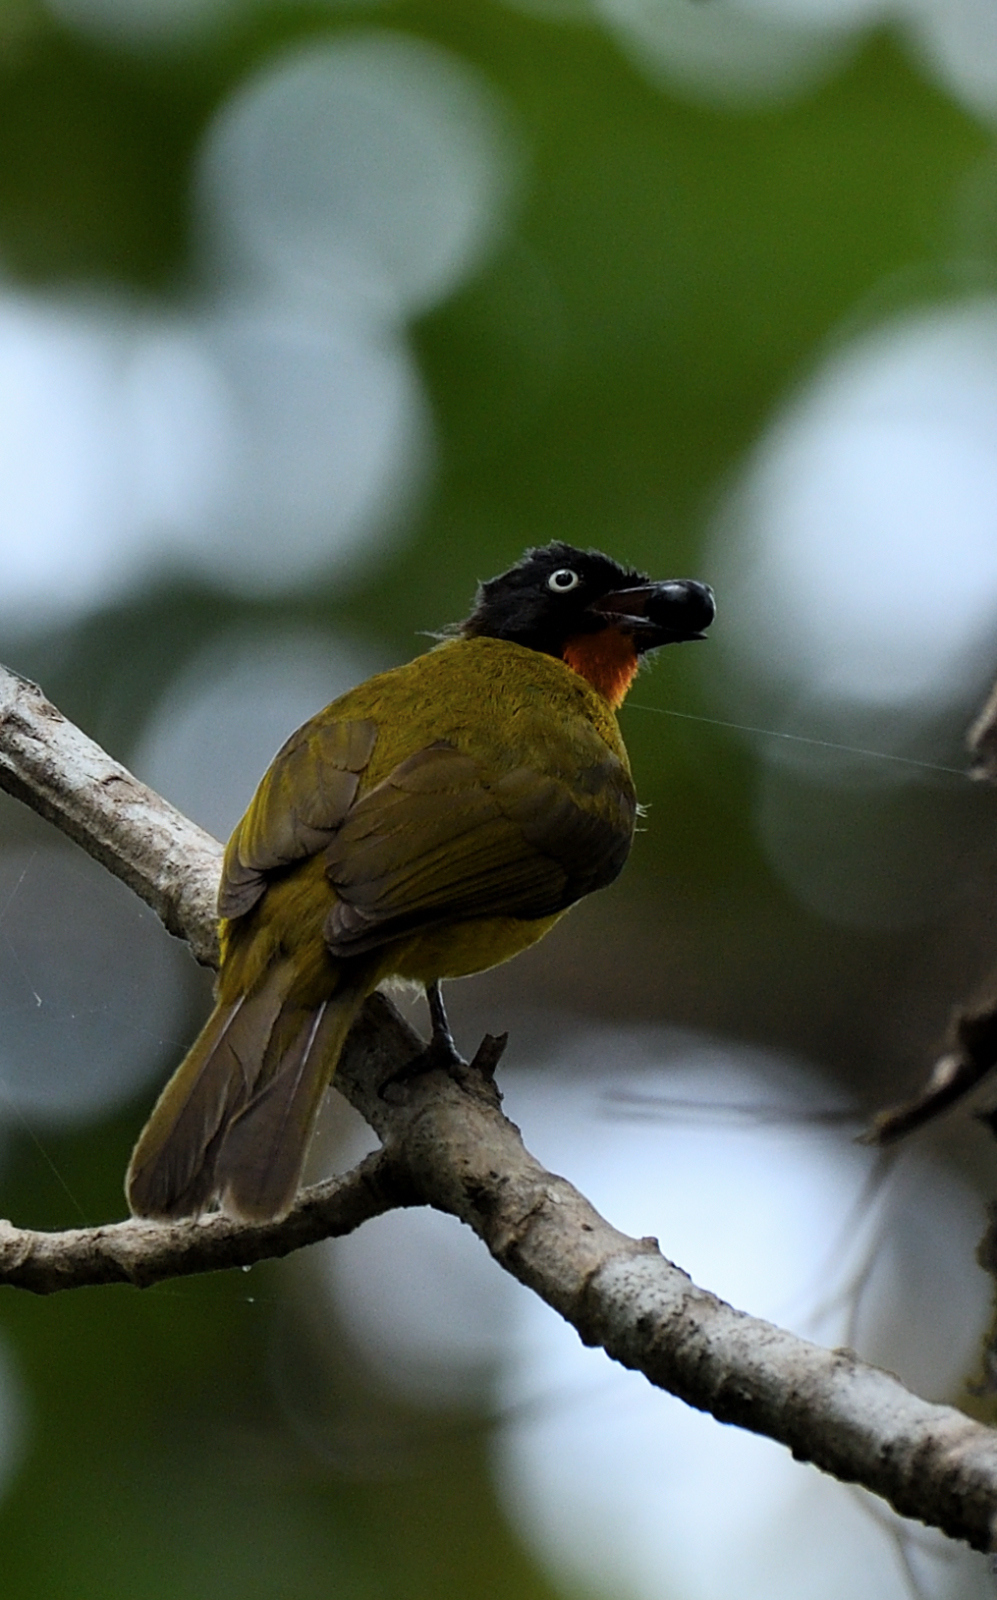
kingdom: Animalia
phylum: Chordata
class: Aves
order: Passeriformes
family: Pycnonotidae
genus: Pycnonotus
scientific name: Pycnonotus gularis
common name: Flame-throated bulbul
